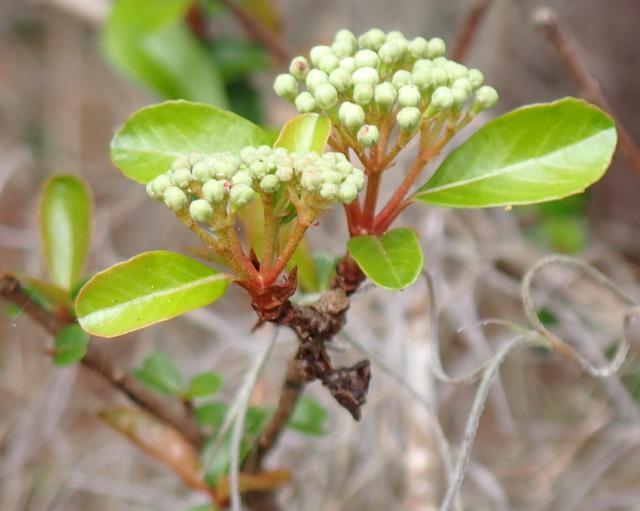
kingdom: Plantae
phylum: Tracheophyta
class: Magnoliopsida
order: Dipsacales
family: Viburnaceae
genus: Viburnum
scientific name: Viburnum obovatum
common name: Walter's viburnum
